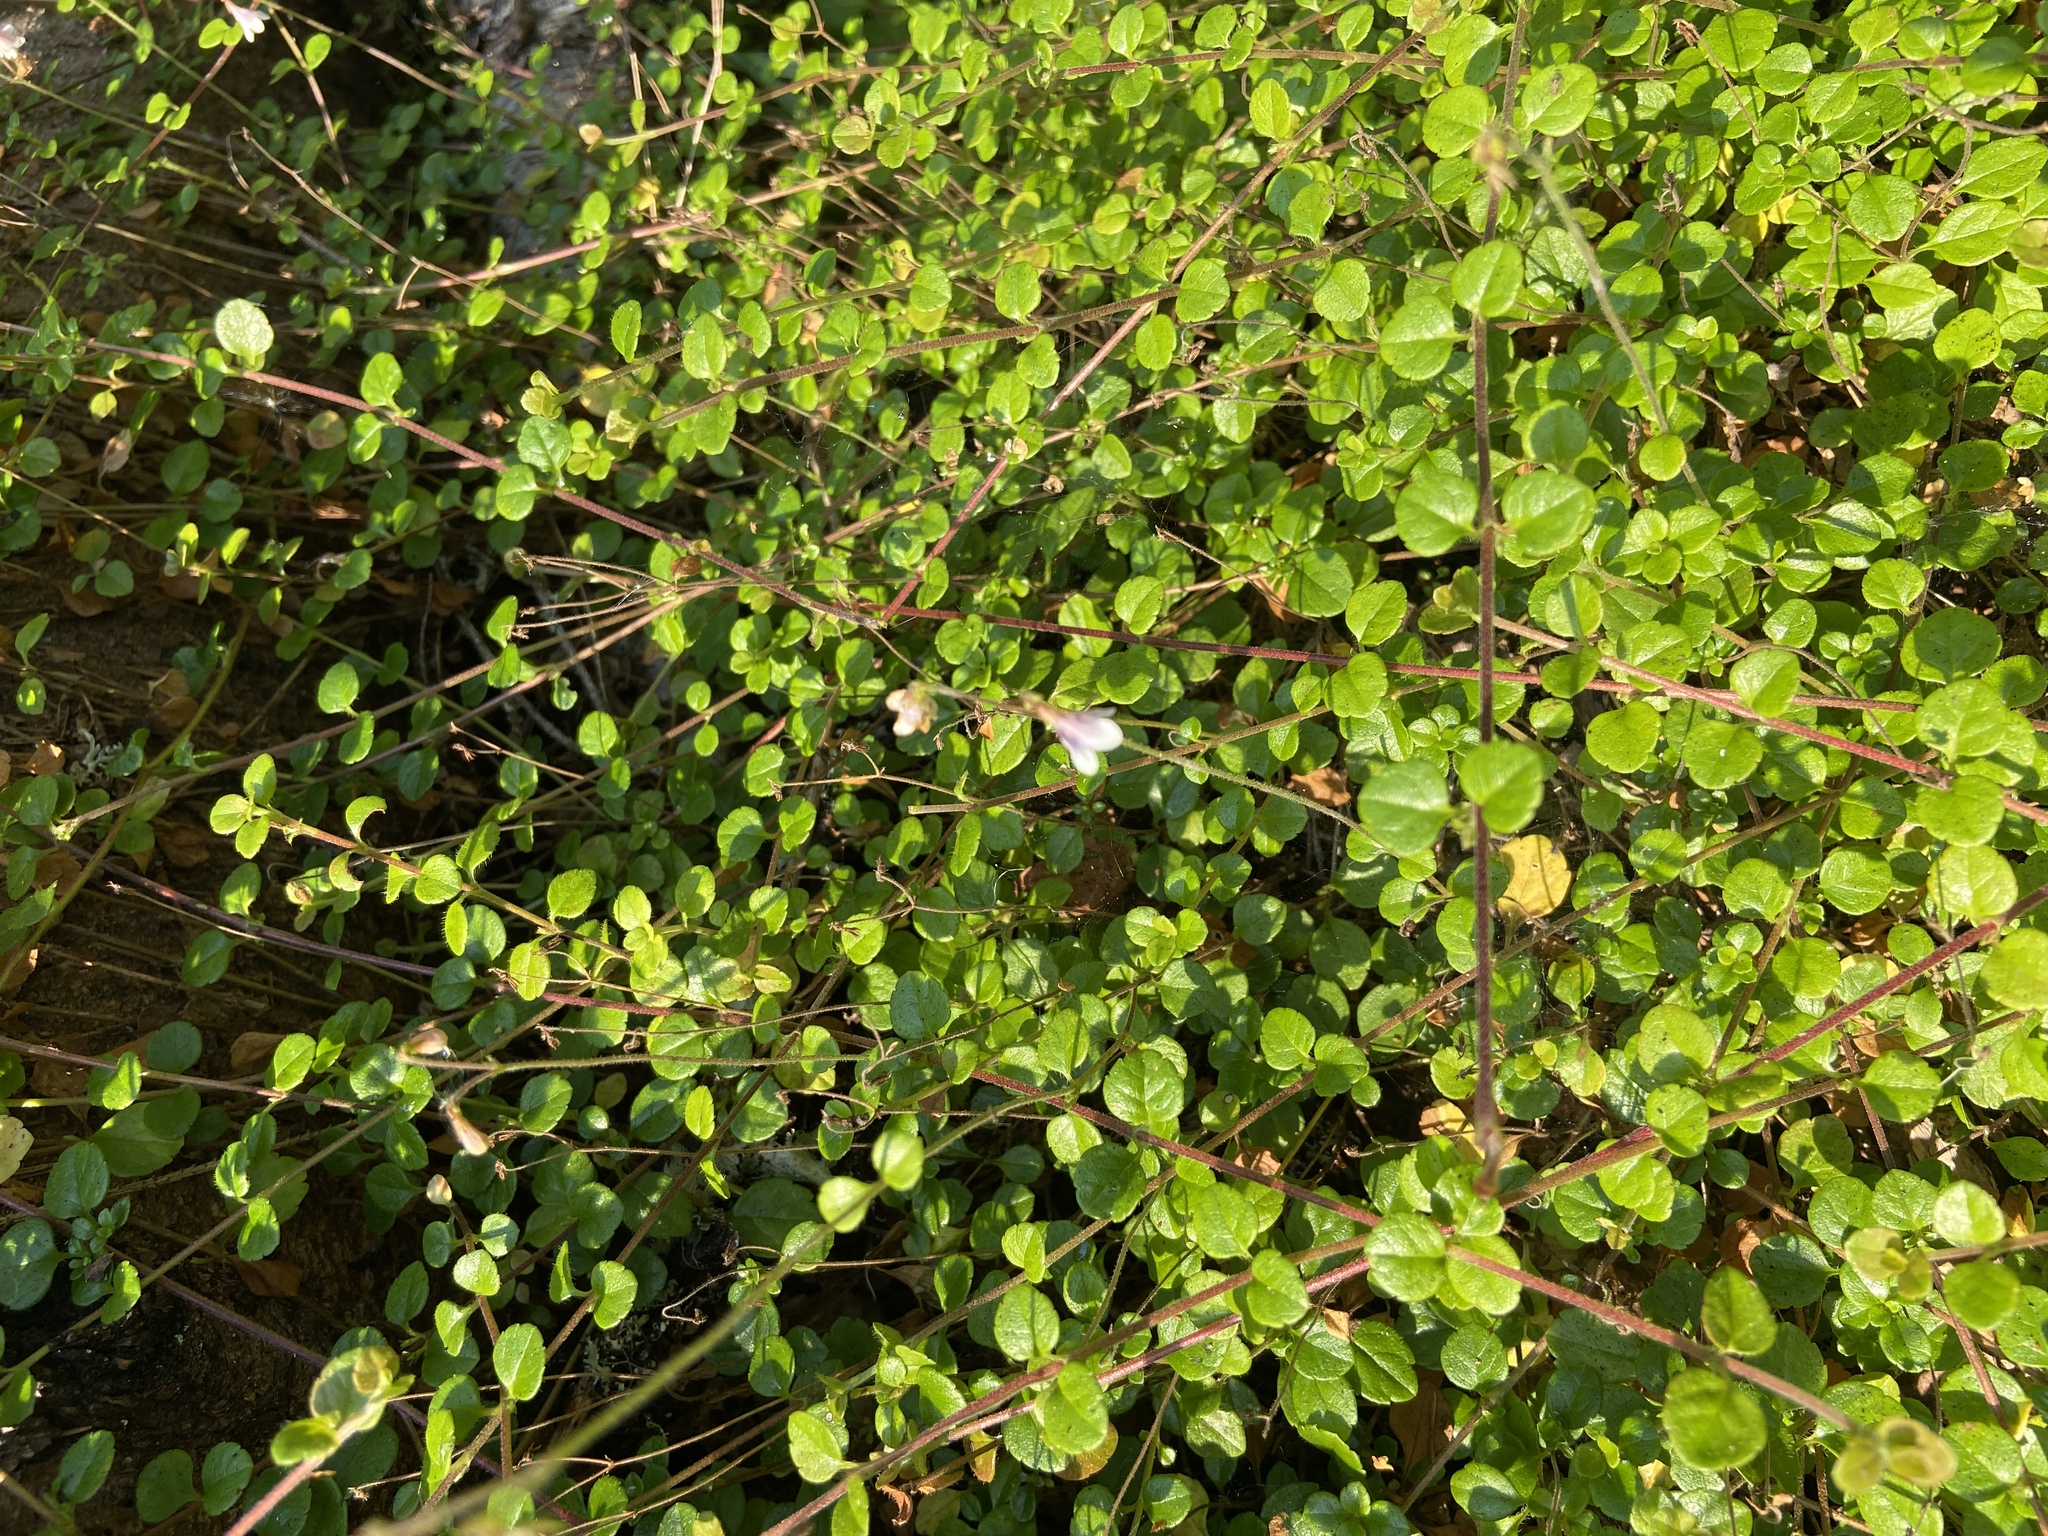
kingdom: Plantae
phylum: Tracheophyta
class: Magnoliopsida
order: Dipsacales
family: Caprifoliaceae
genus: Linnaea
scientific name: Linnaea borealis
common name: Twinflower
